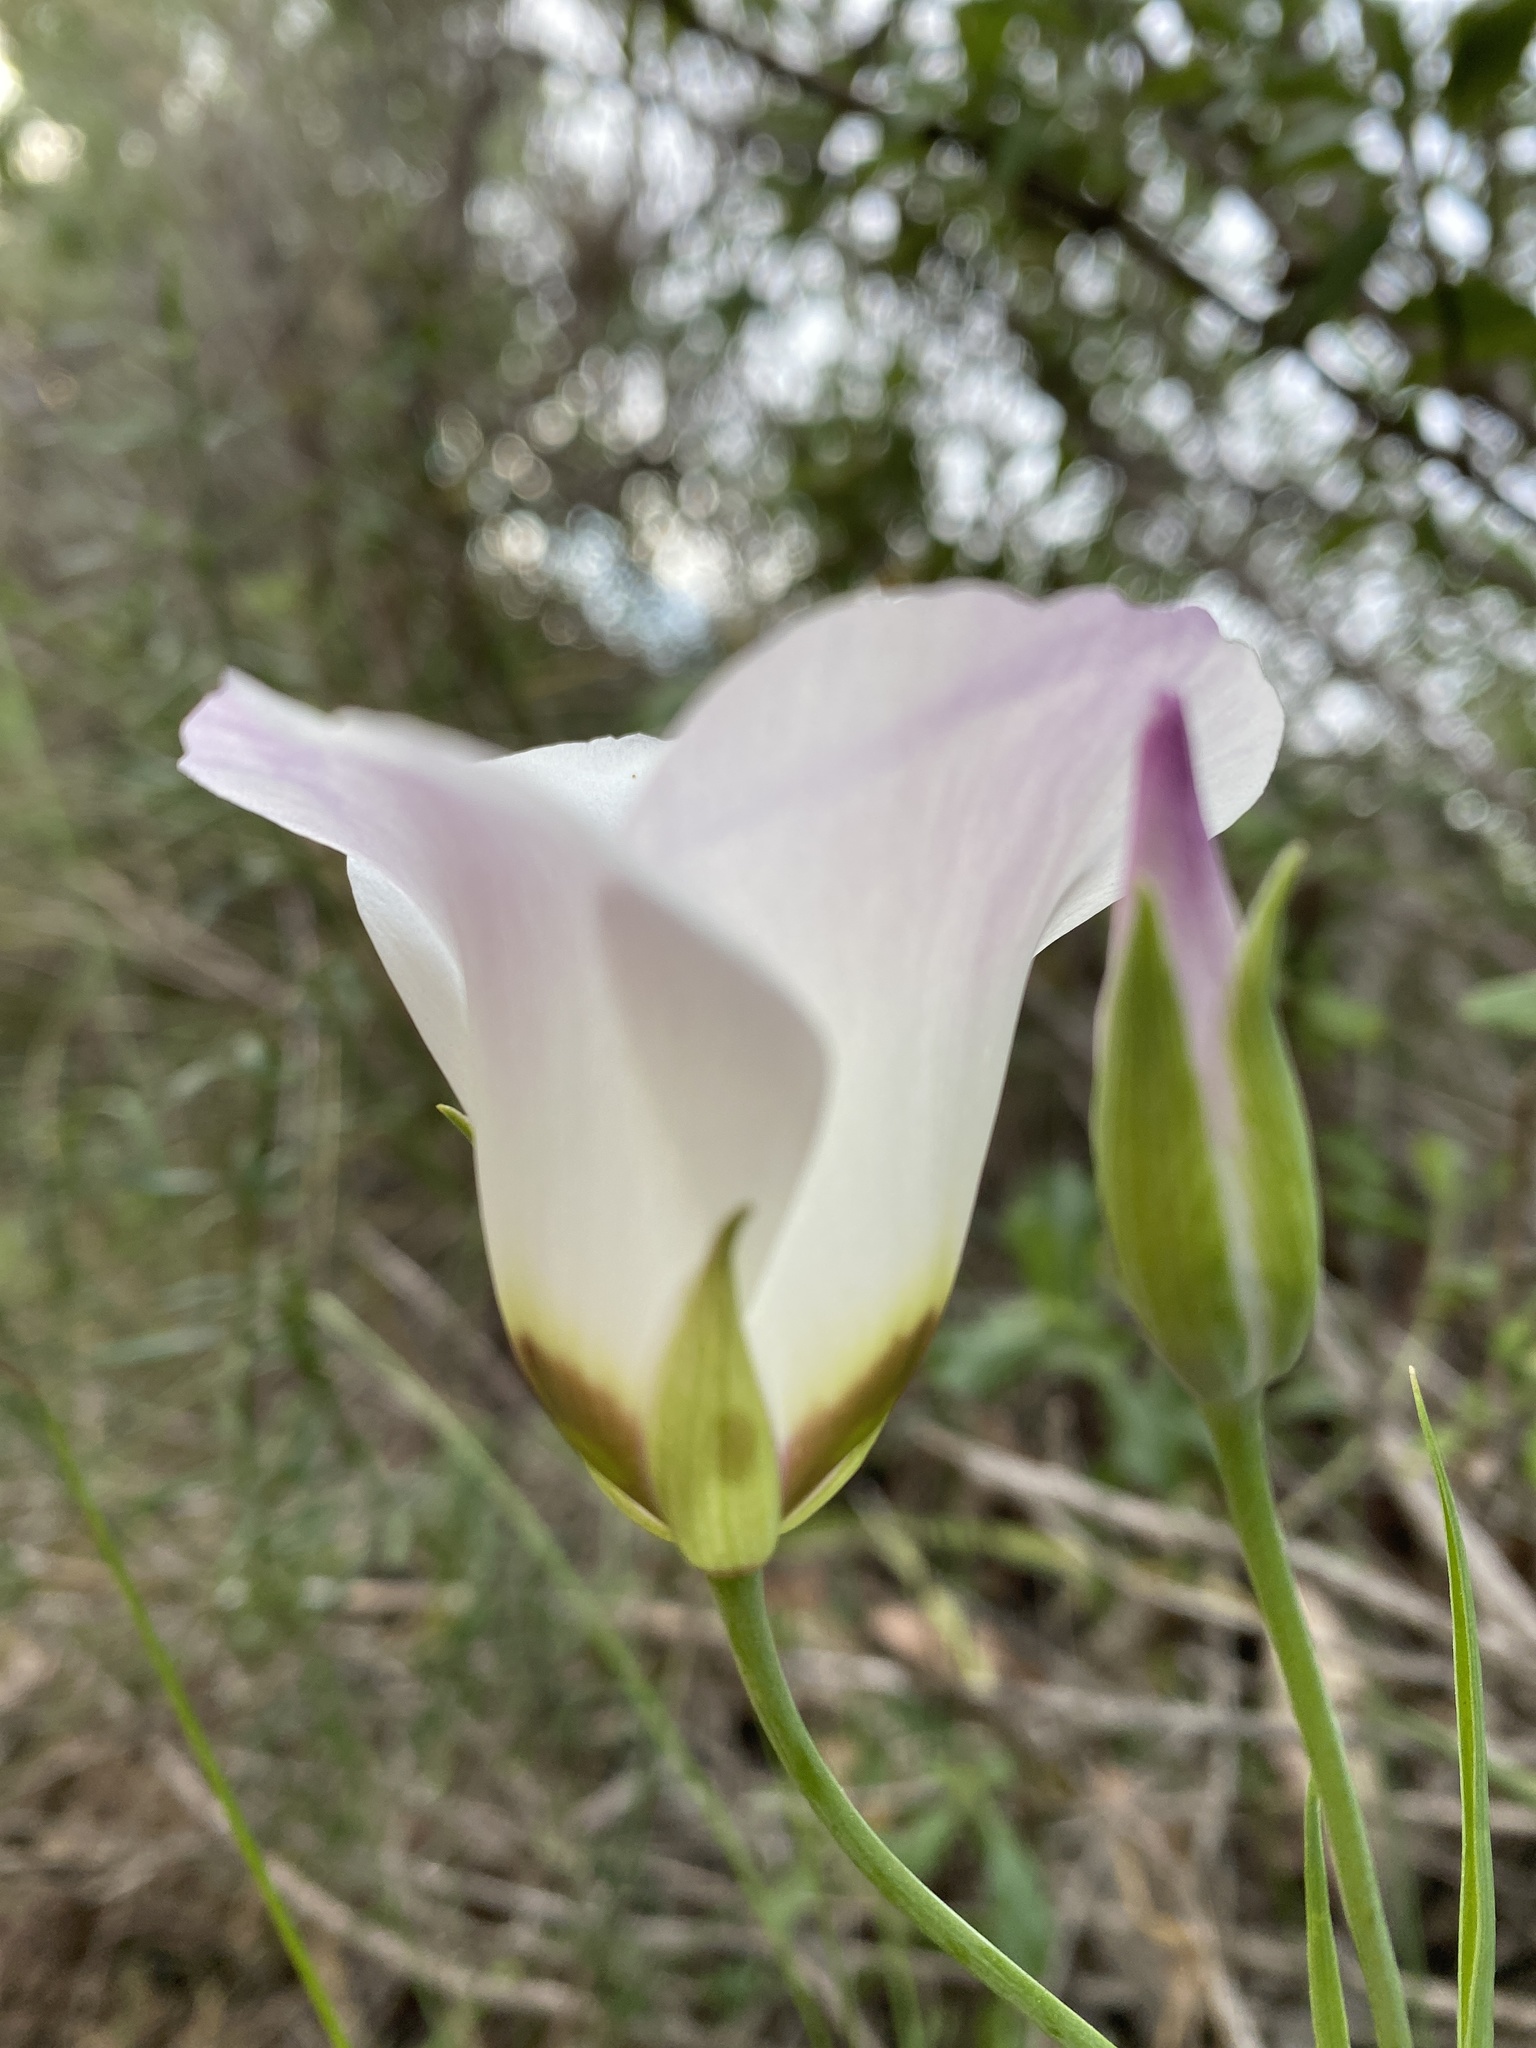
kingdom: Plantae
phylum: Tracheophyta
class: Liliopsida
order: Liliales
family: Liliaceae
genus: Calochortus
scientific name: Calochortus catalinae
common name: Catalina mariposa-lily
